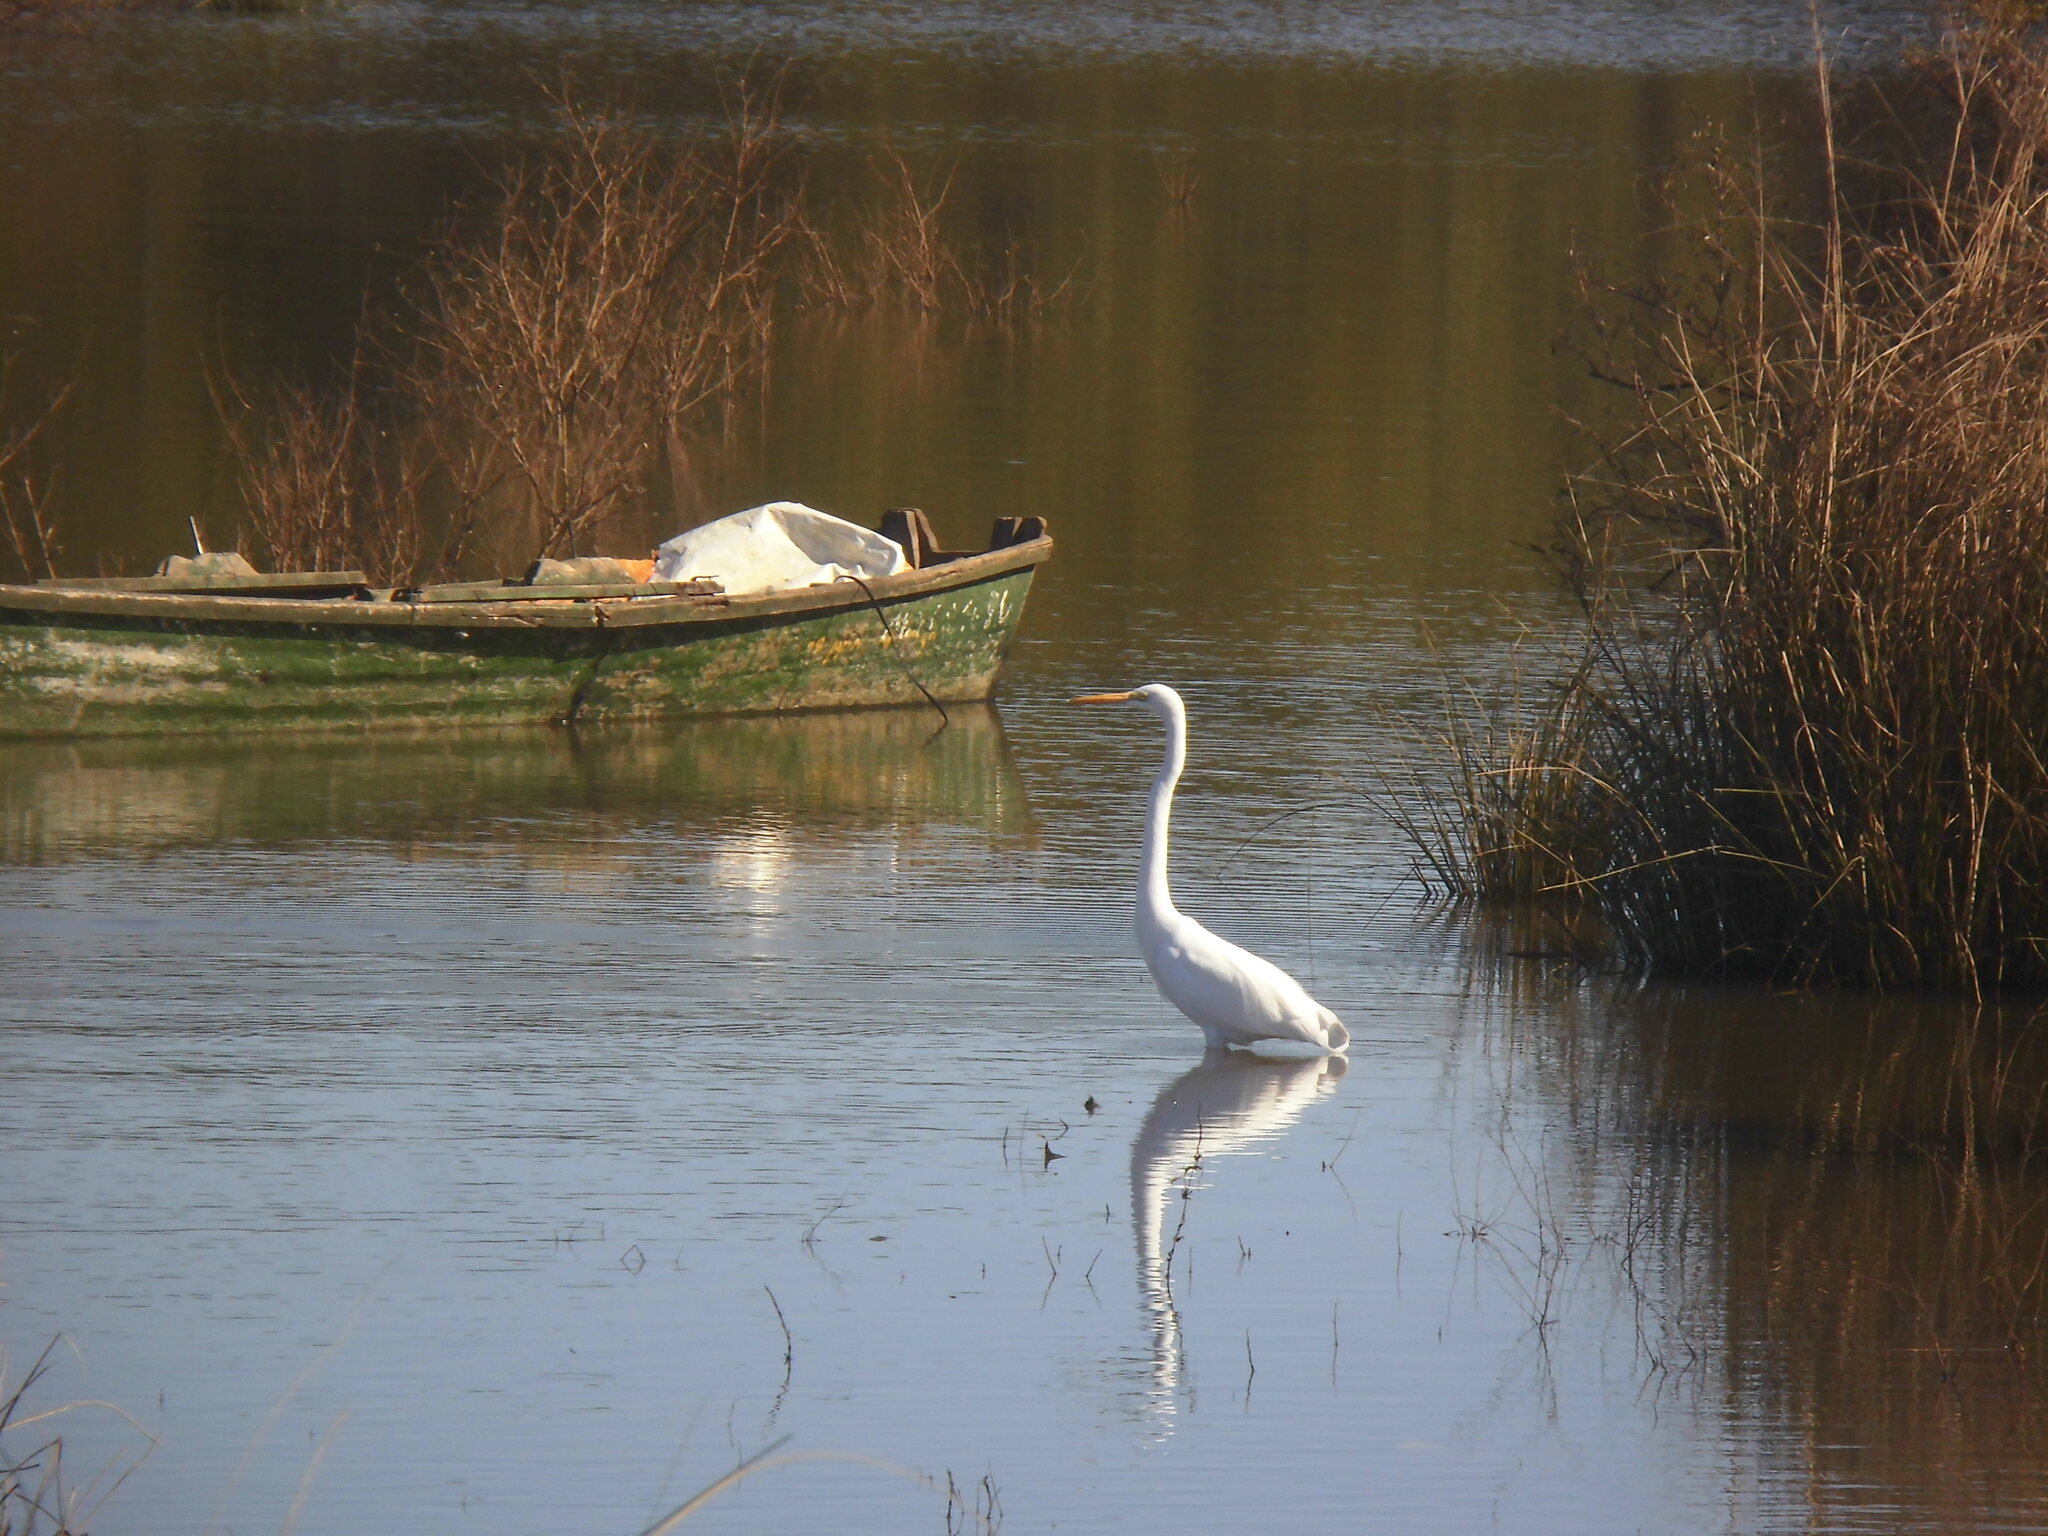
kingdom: Animalia
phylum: Chordata
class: Aves
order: Pelecaniformes
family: Ardeidae
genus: Ardea
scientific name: Ardea alba
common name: Great egret
